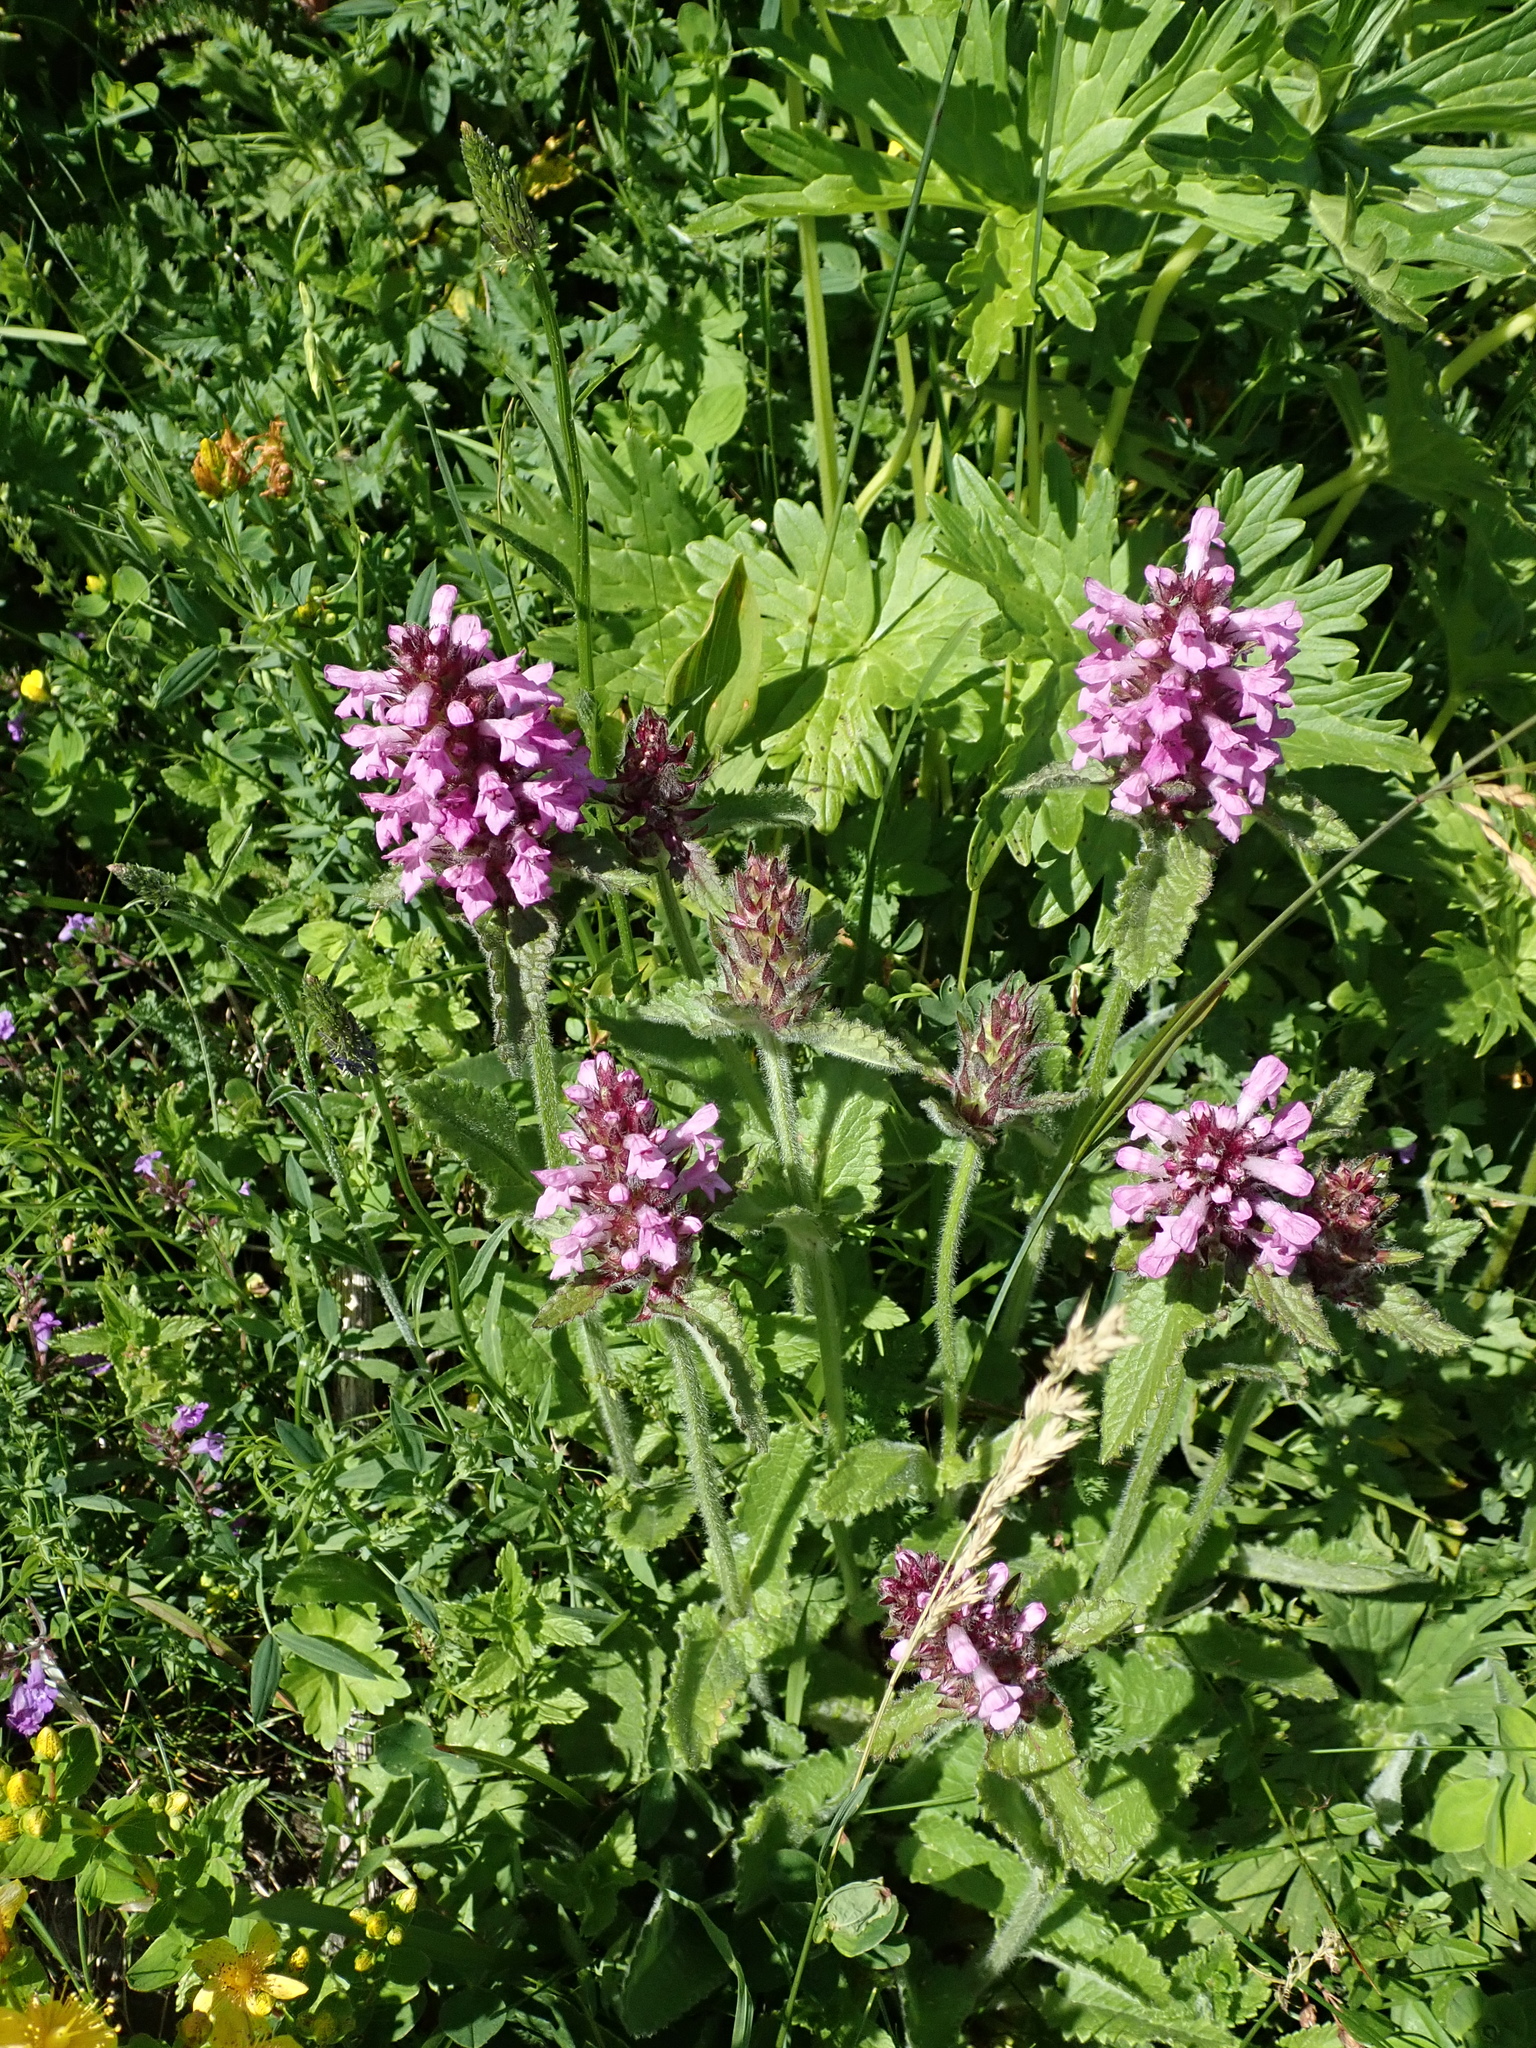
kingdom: Plantae
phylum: Tracheophyta
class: Magnoliopsida
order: Lamiales
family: Lamiaceae
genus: Betonica
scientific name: Betonica hirsuta
